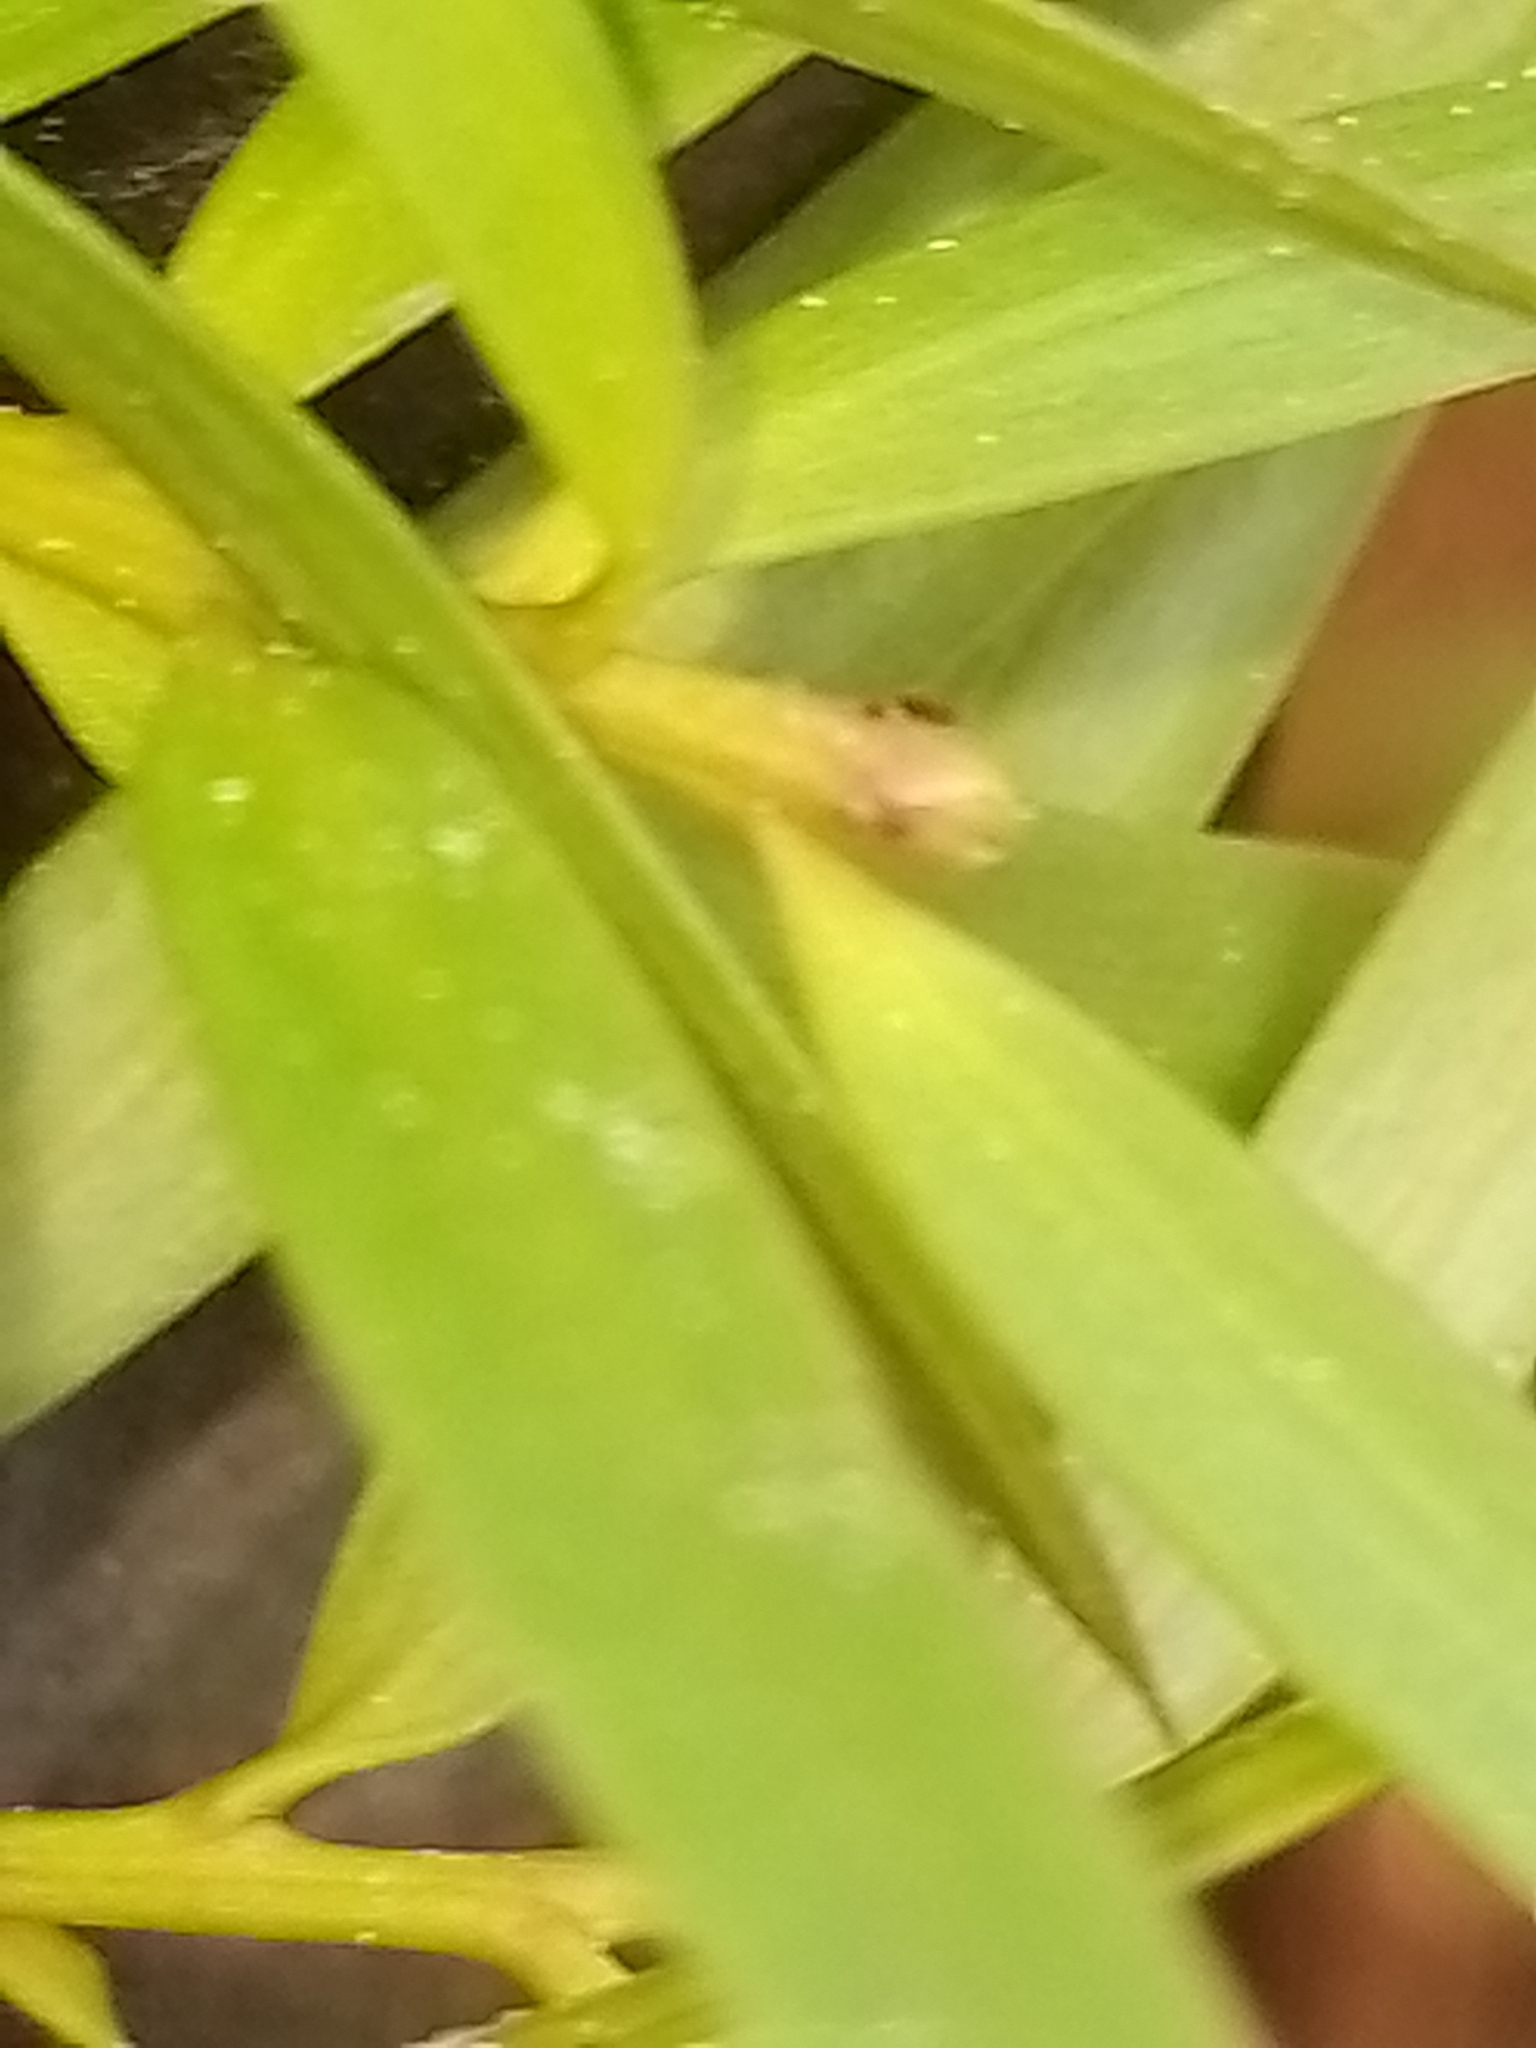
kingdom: Plantae
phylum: Tracheophyta
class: Pinopsida
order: Pinales
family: Podocarpaceae
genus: Podocarpus
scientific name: Podocarpus totara
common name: Totara
